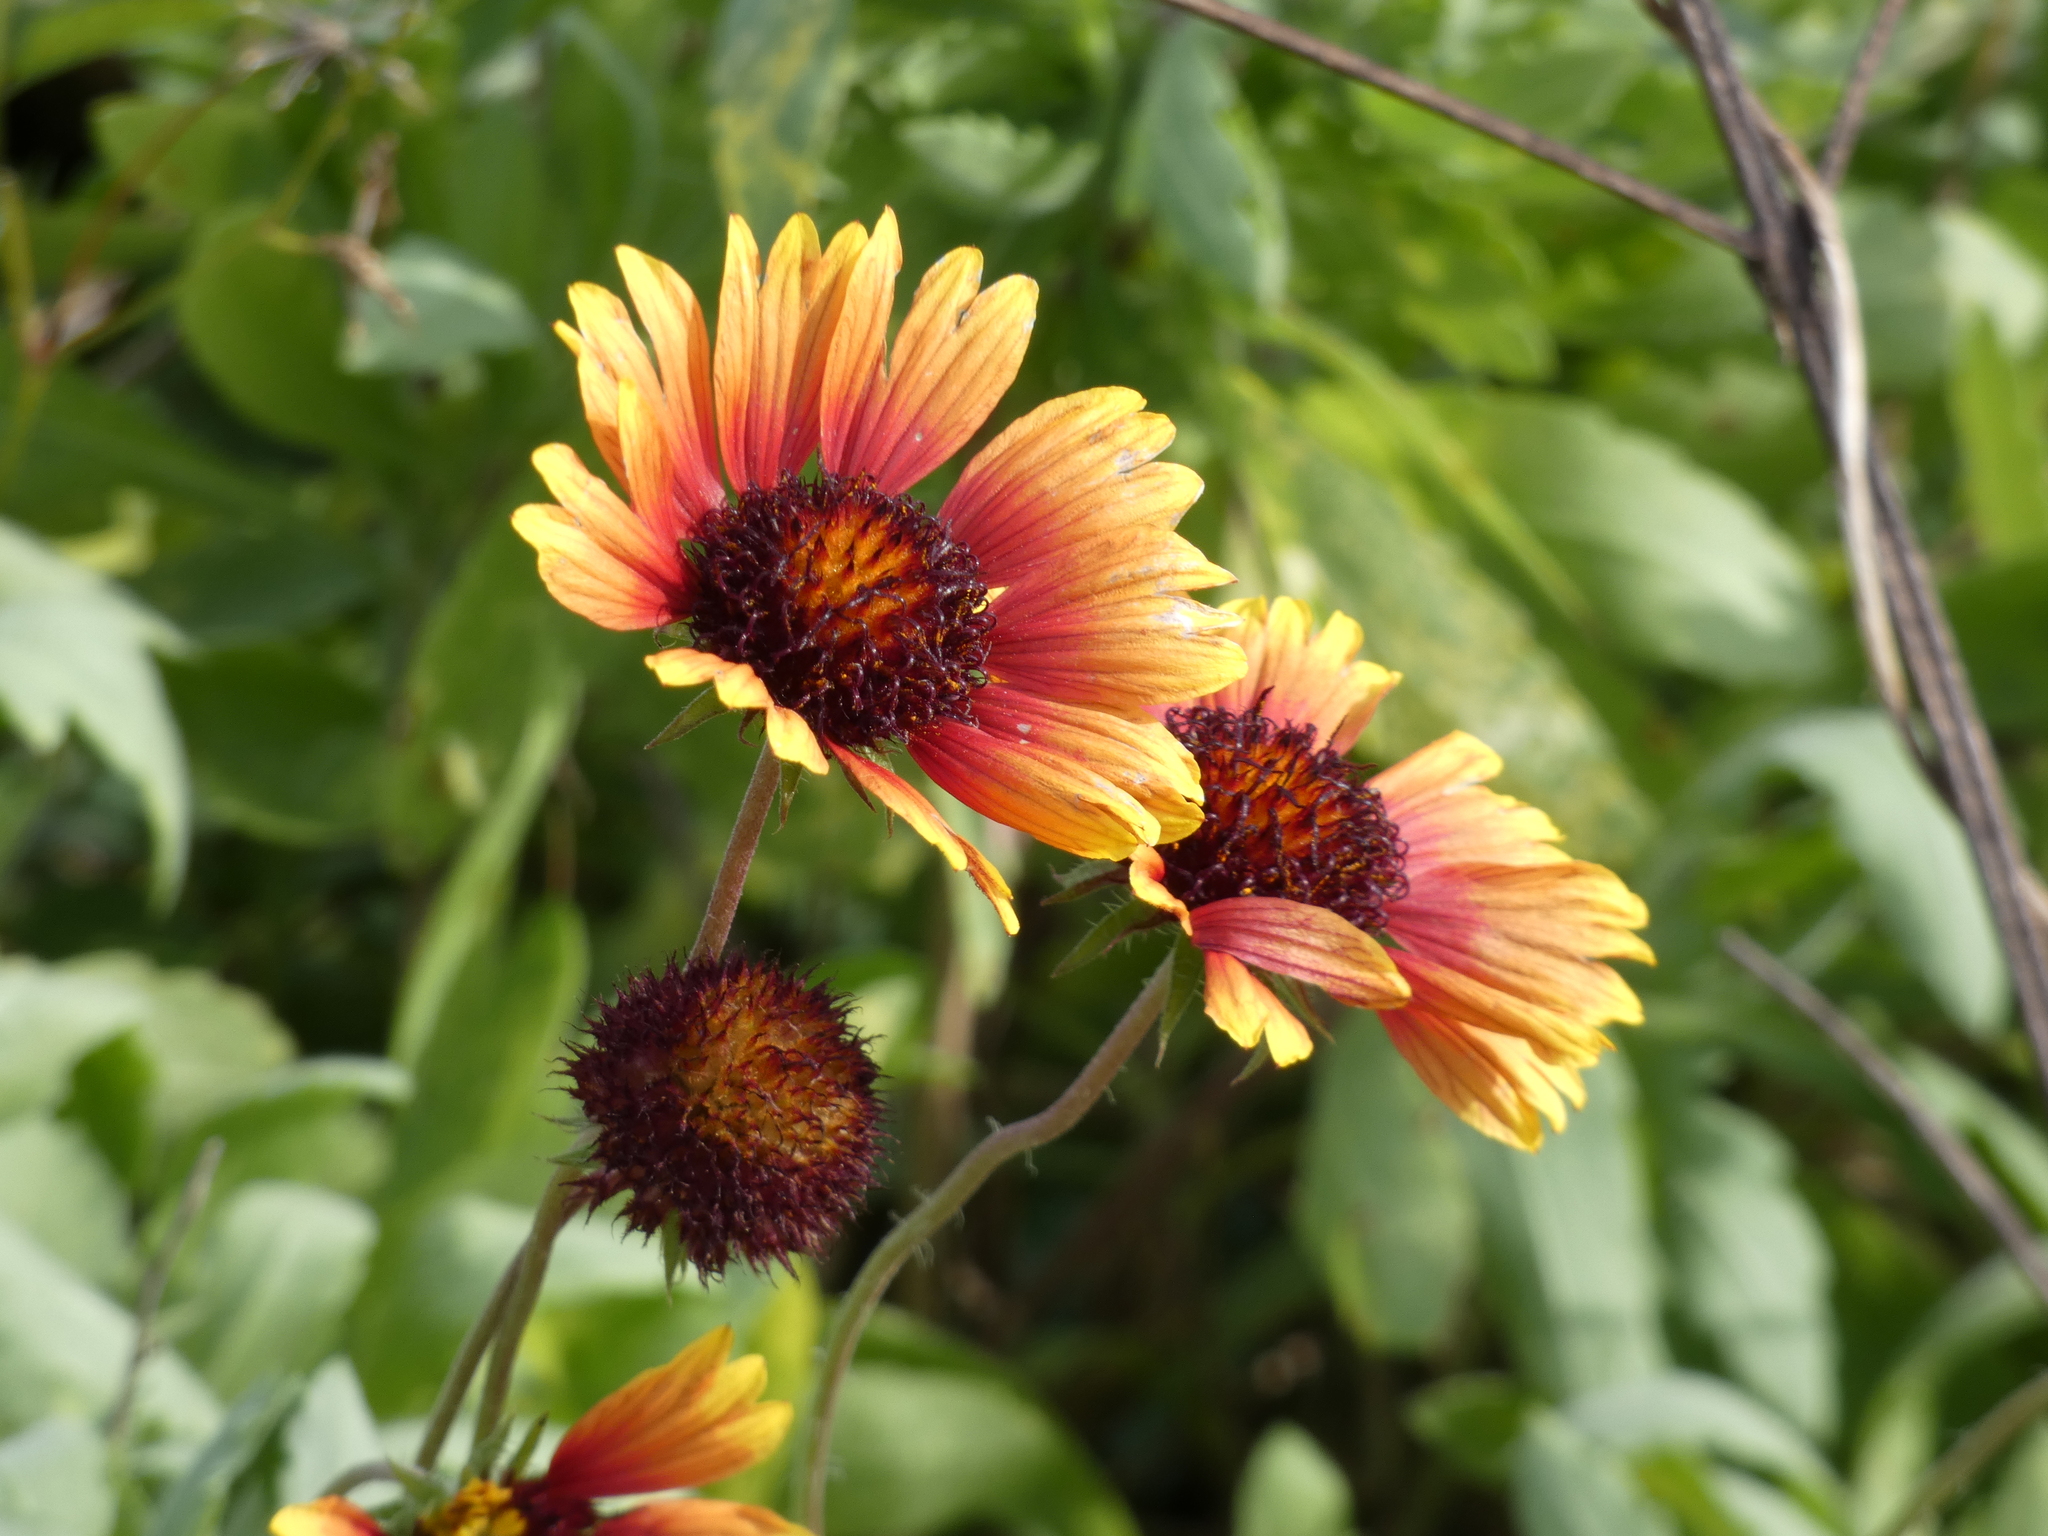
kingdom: Plantae
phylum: Tracheophyta
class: Magnoliopsida
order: Asterales
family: Asteraceae
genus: Gaillardia
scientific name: Gaillardia pulchella
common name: Firewheel
